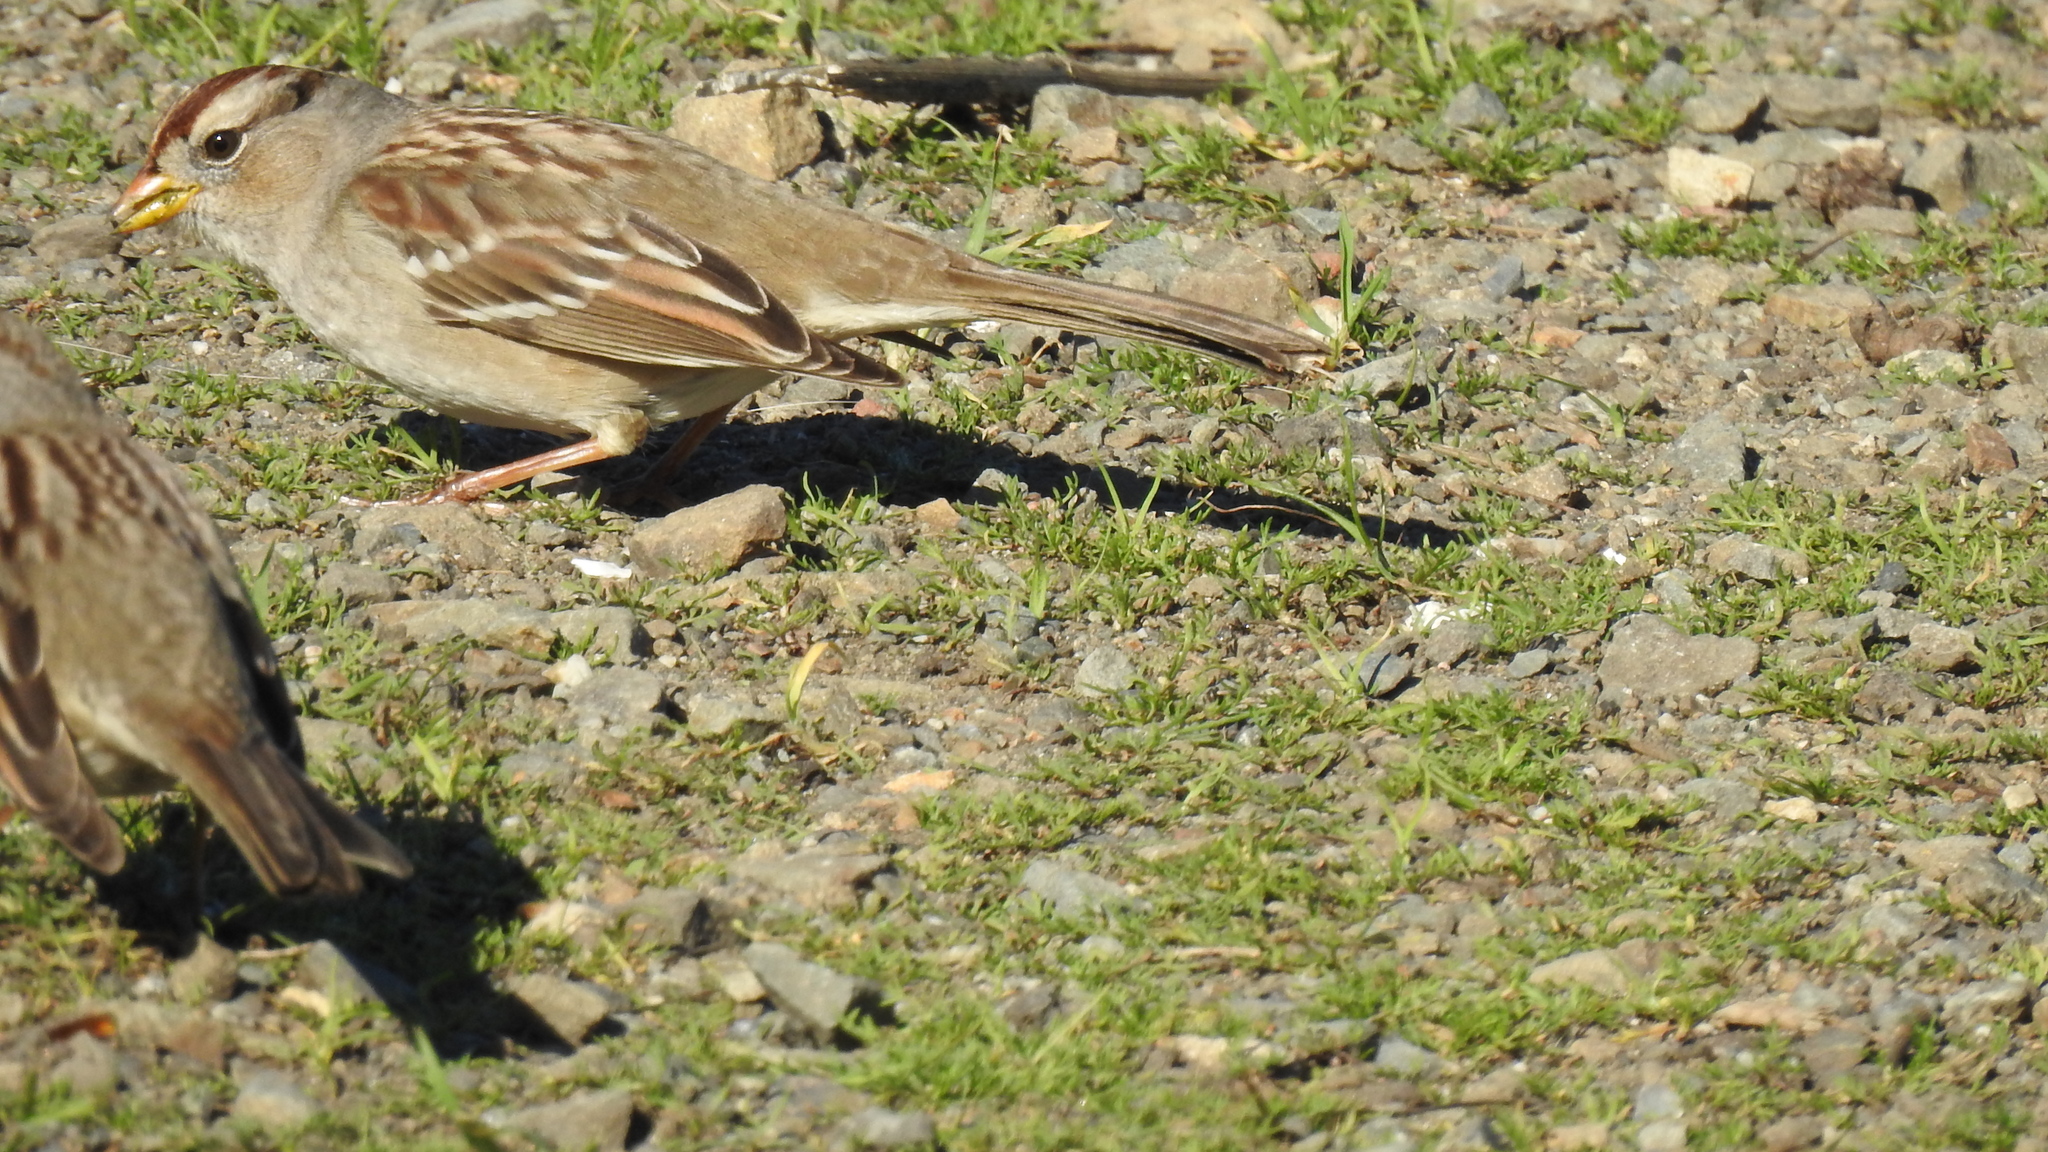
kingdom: Animalia
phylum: Chordata
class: Aves
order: Passeriformes
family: Passerellidae
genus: Zonotrichia
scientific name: Zonotrichia leucophrys
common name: White-crowned sparrow
